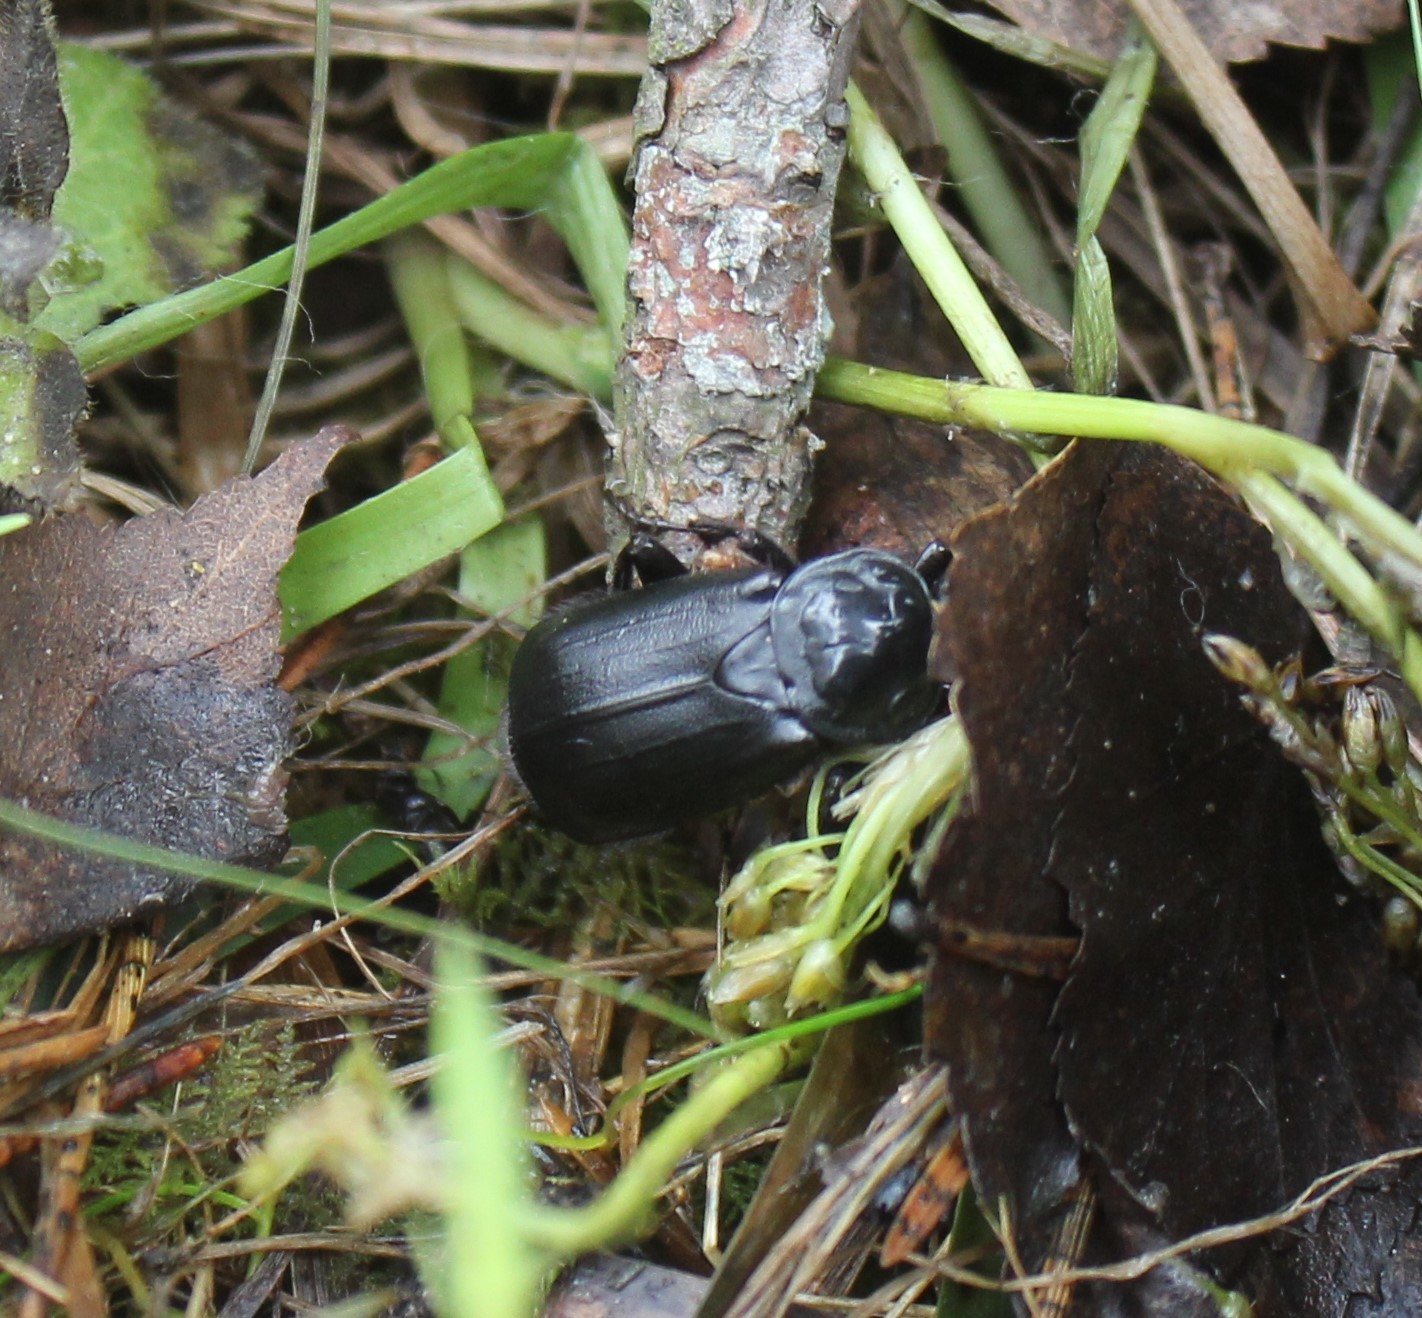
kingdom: Animalia
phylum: Arthropoda
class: Insecta
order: Coleoptera
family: Staphylinidae
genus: Nicrophorus
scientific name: Nicrophorus humator
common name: Black sexton beetle
